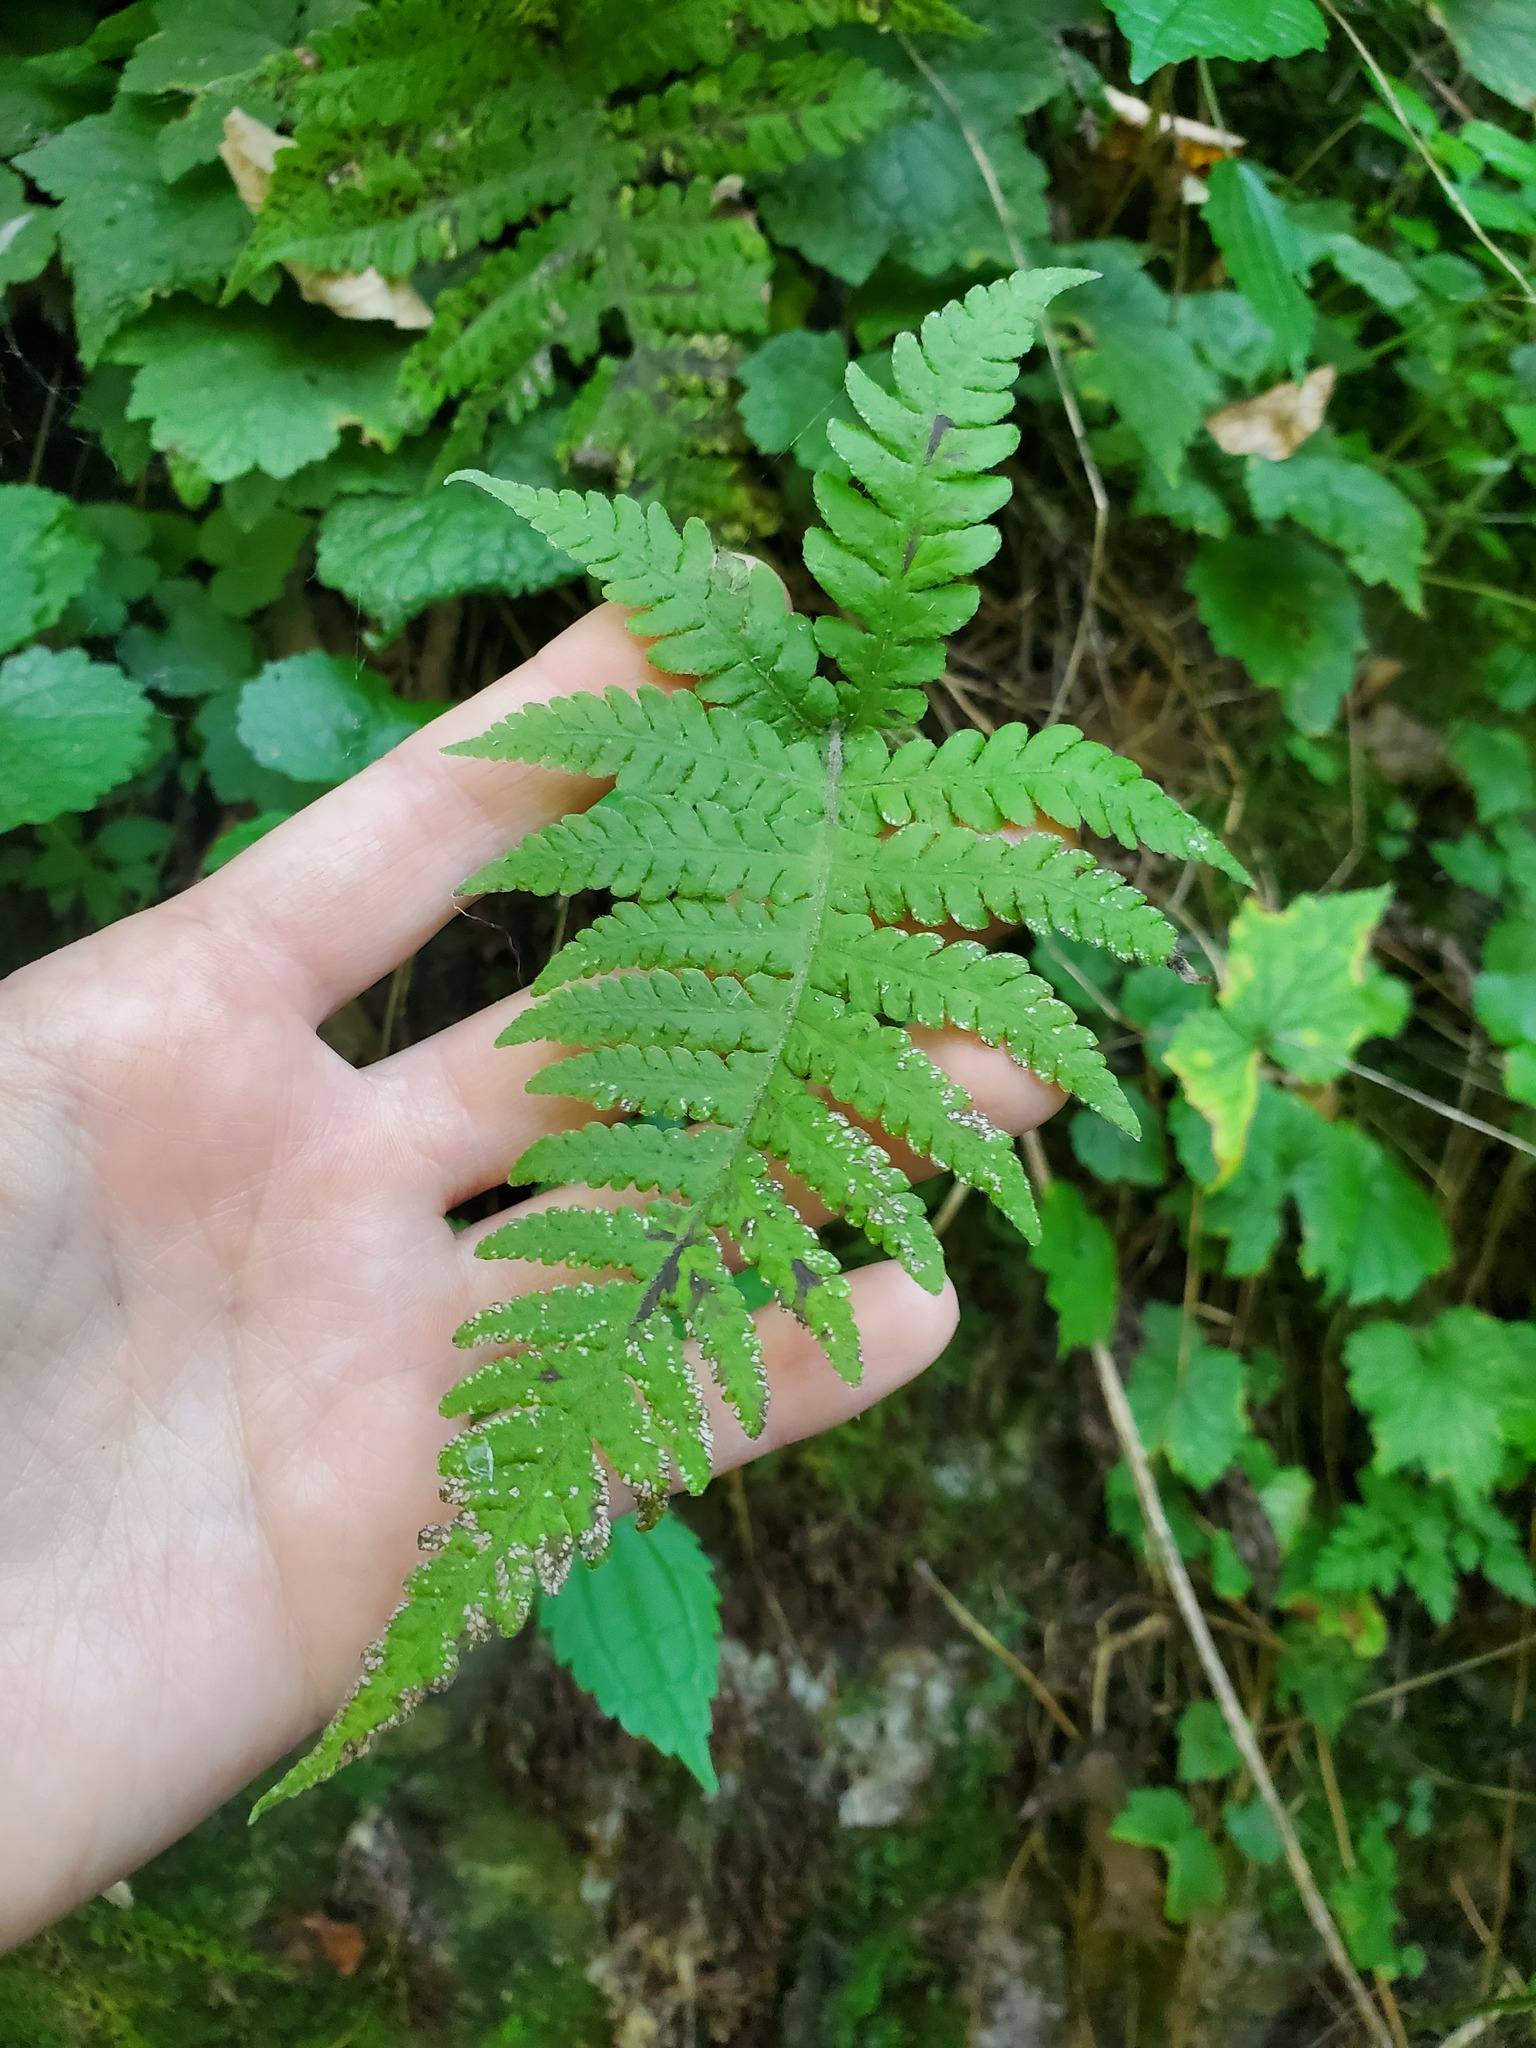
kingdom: Plantae
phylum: Tracheophyta
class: Polypodiopsida
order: Polypodiales
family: Thelypteridaceae
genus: Phegopteris
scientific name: Phegopteris connectilis
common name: Beech fern
